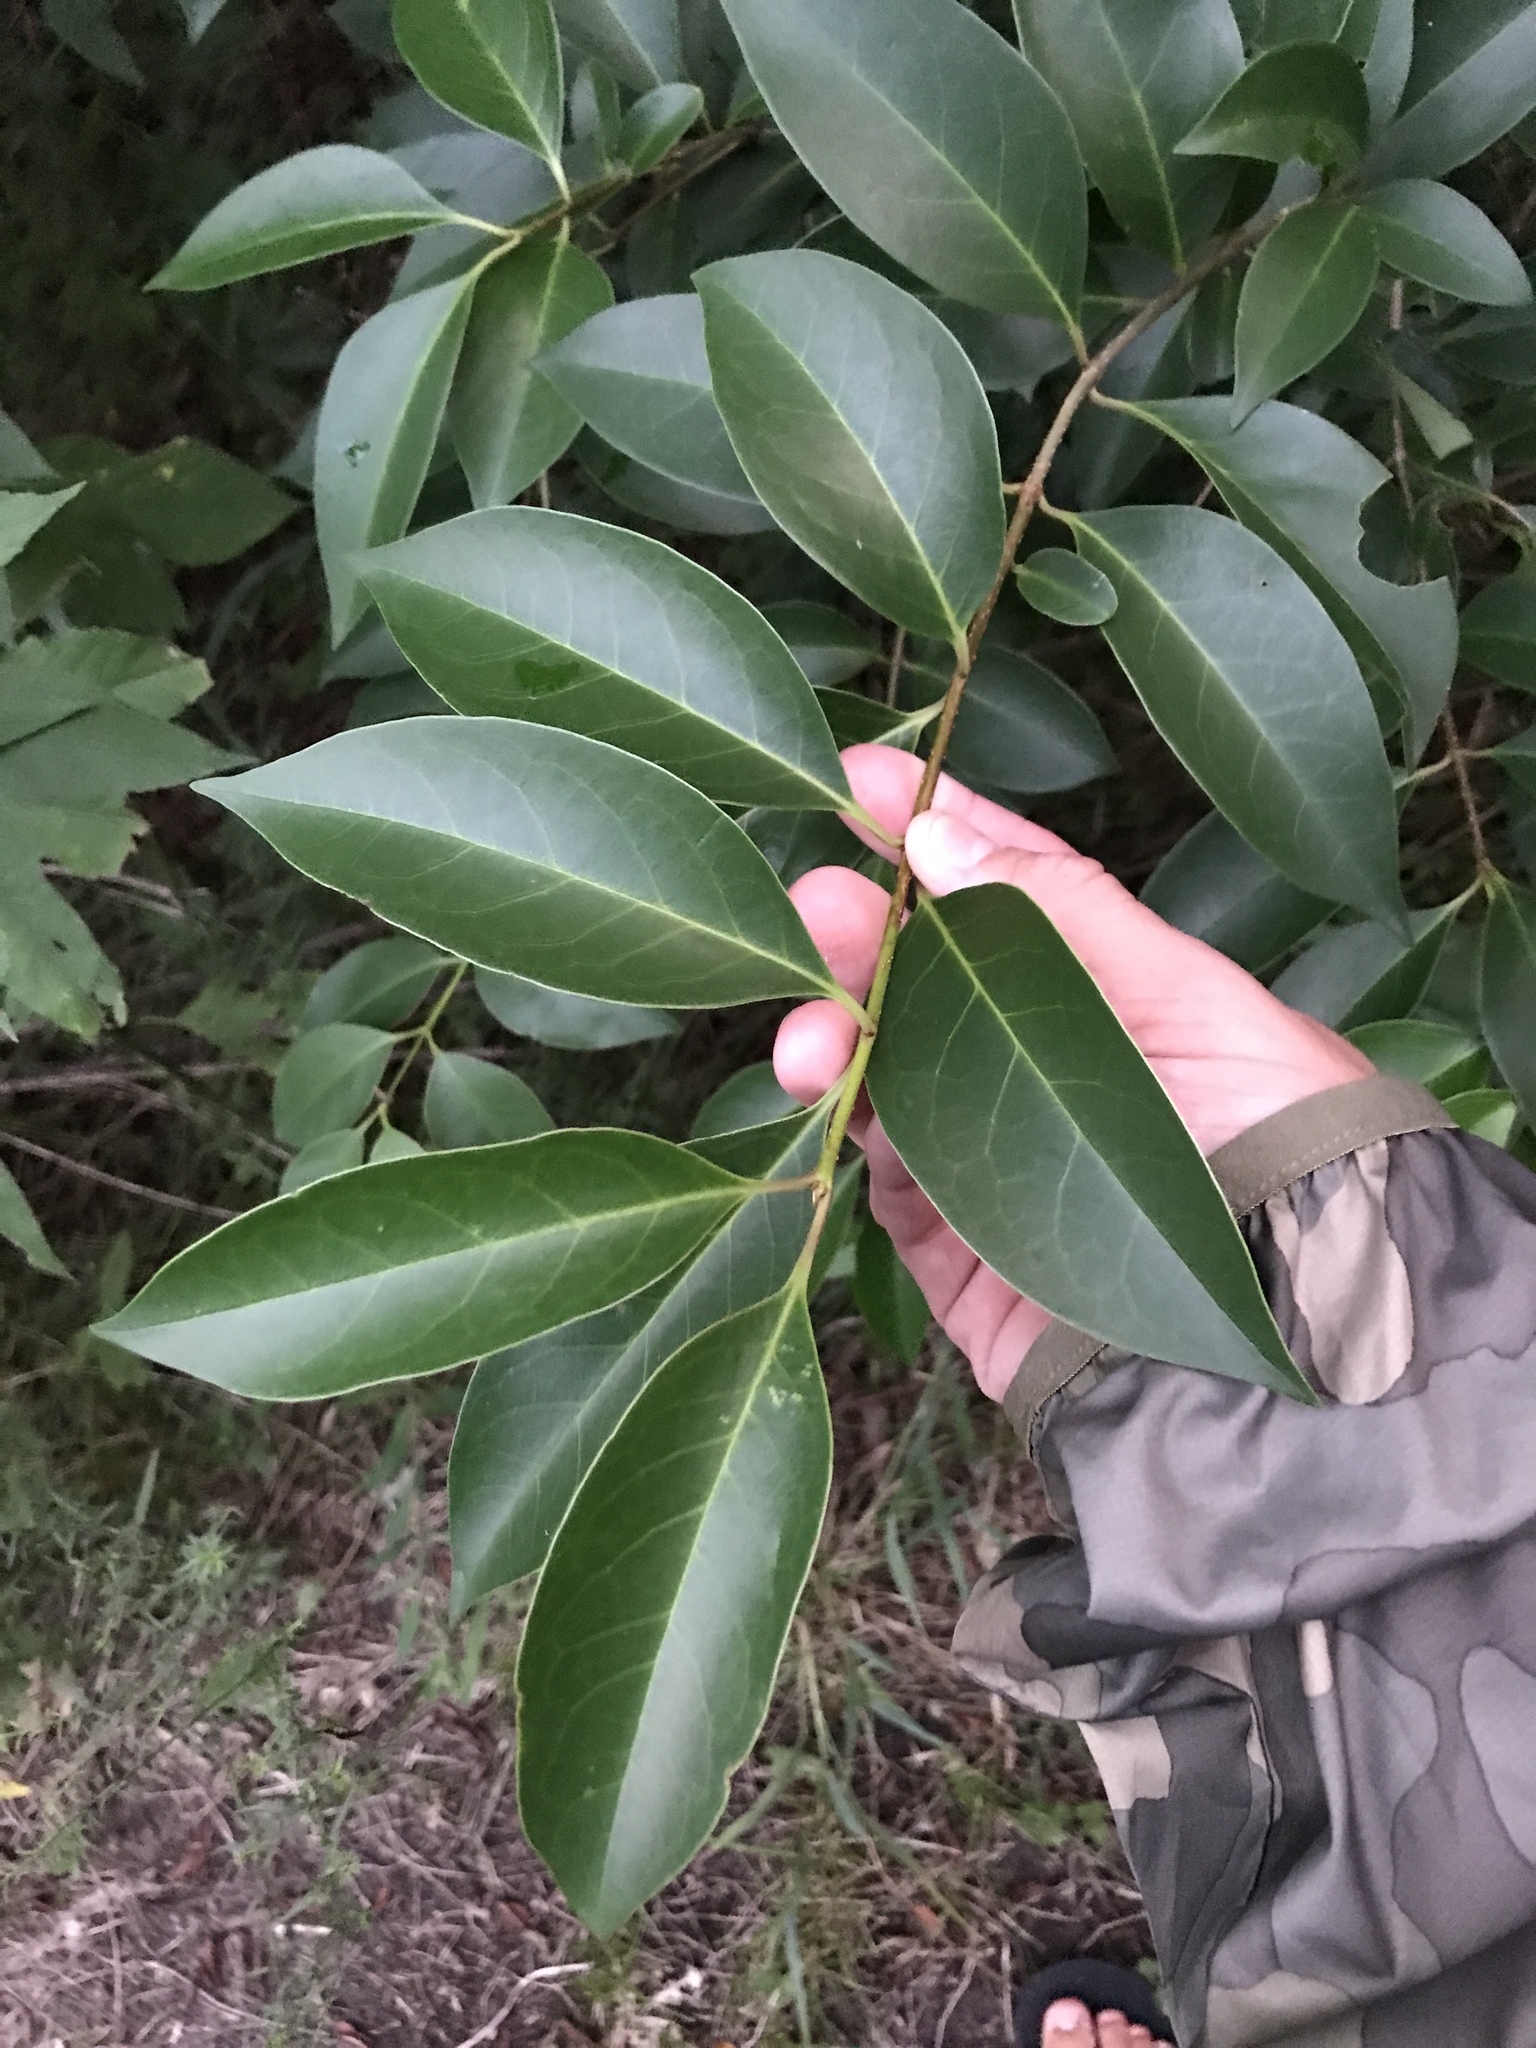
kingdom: Plantae
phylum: Tracheophyta
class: Magnoliopsida
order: Lamiales
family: Oleaceae
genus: Ligustrum
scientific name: Ligustrum lucidum
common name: Glossy privet
